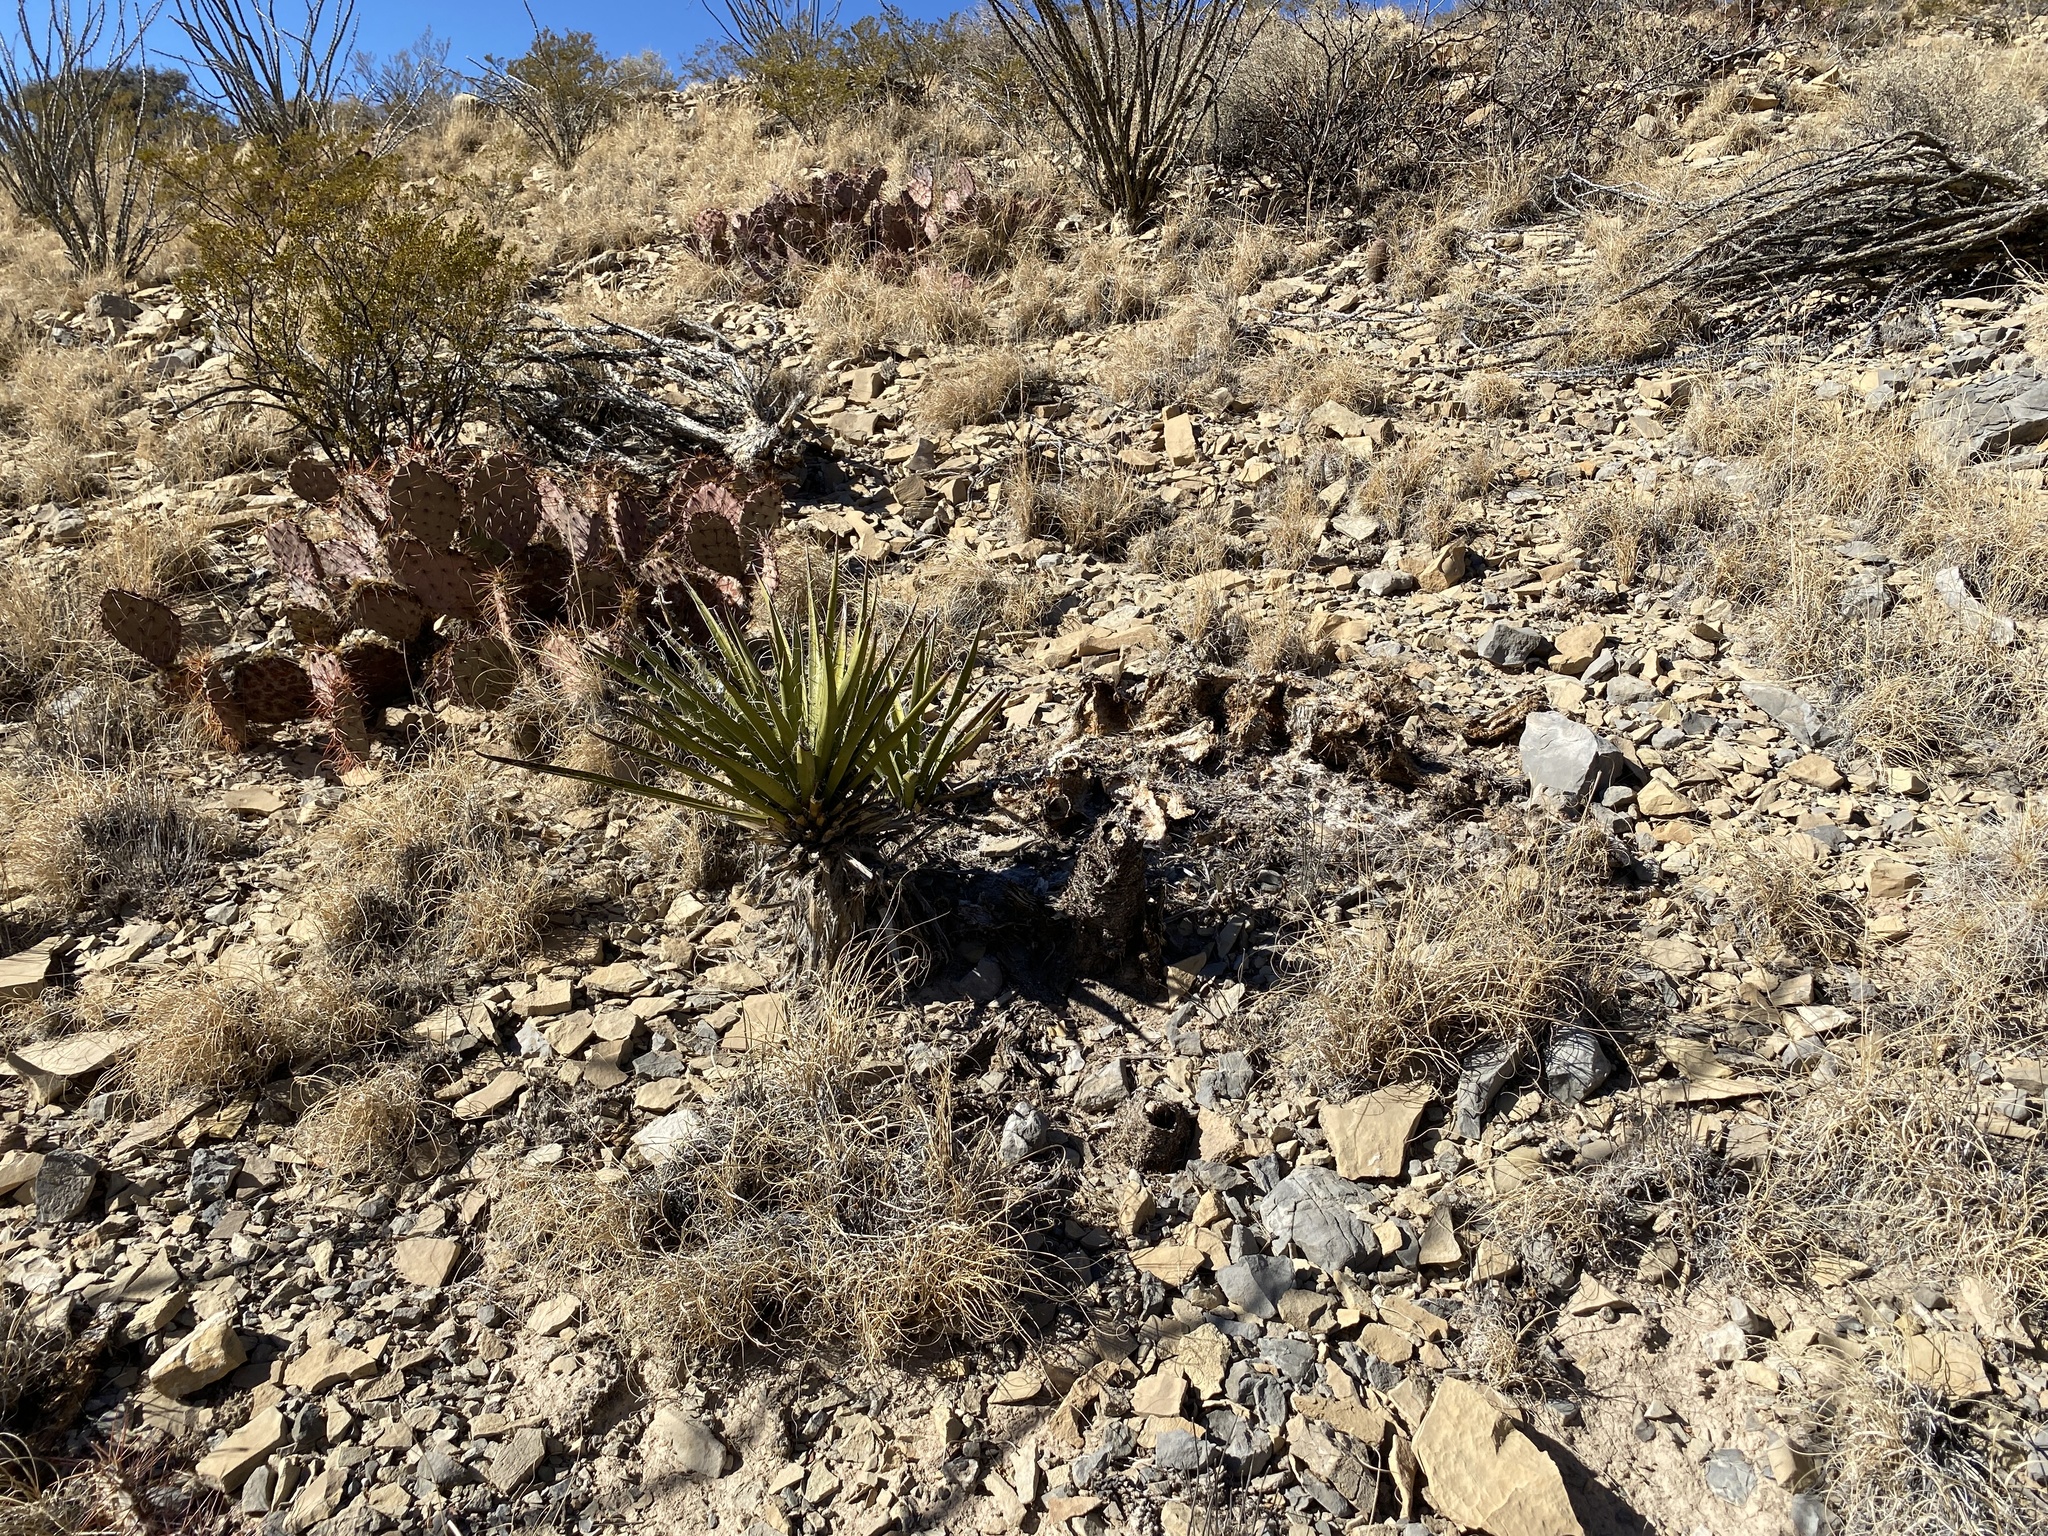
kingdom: Plantae
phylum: Tracheophyta
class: Liliopsida
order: Asparagales
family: Asparagaceae
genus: Yucca
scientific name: Yucca baccata
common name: Banana yucca
